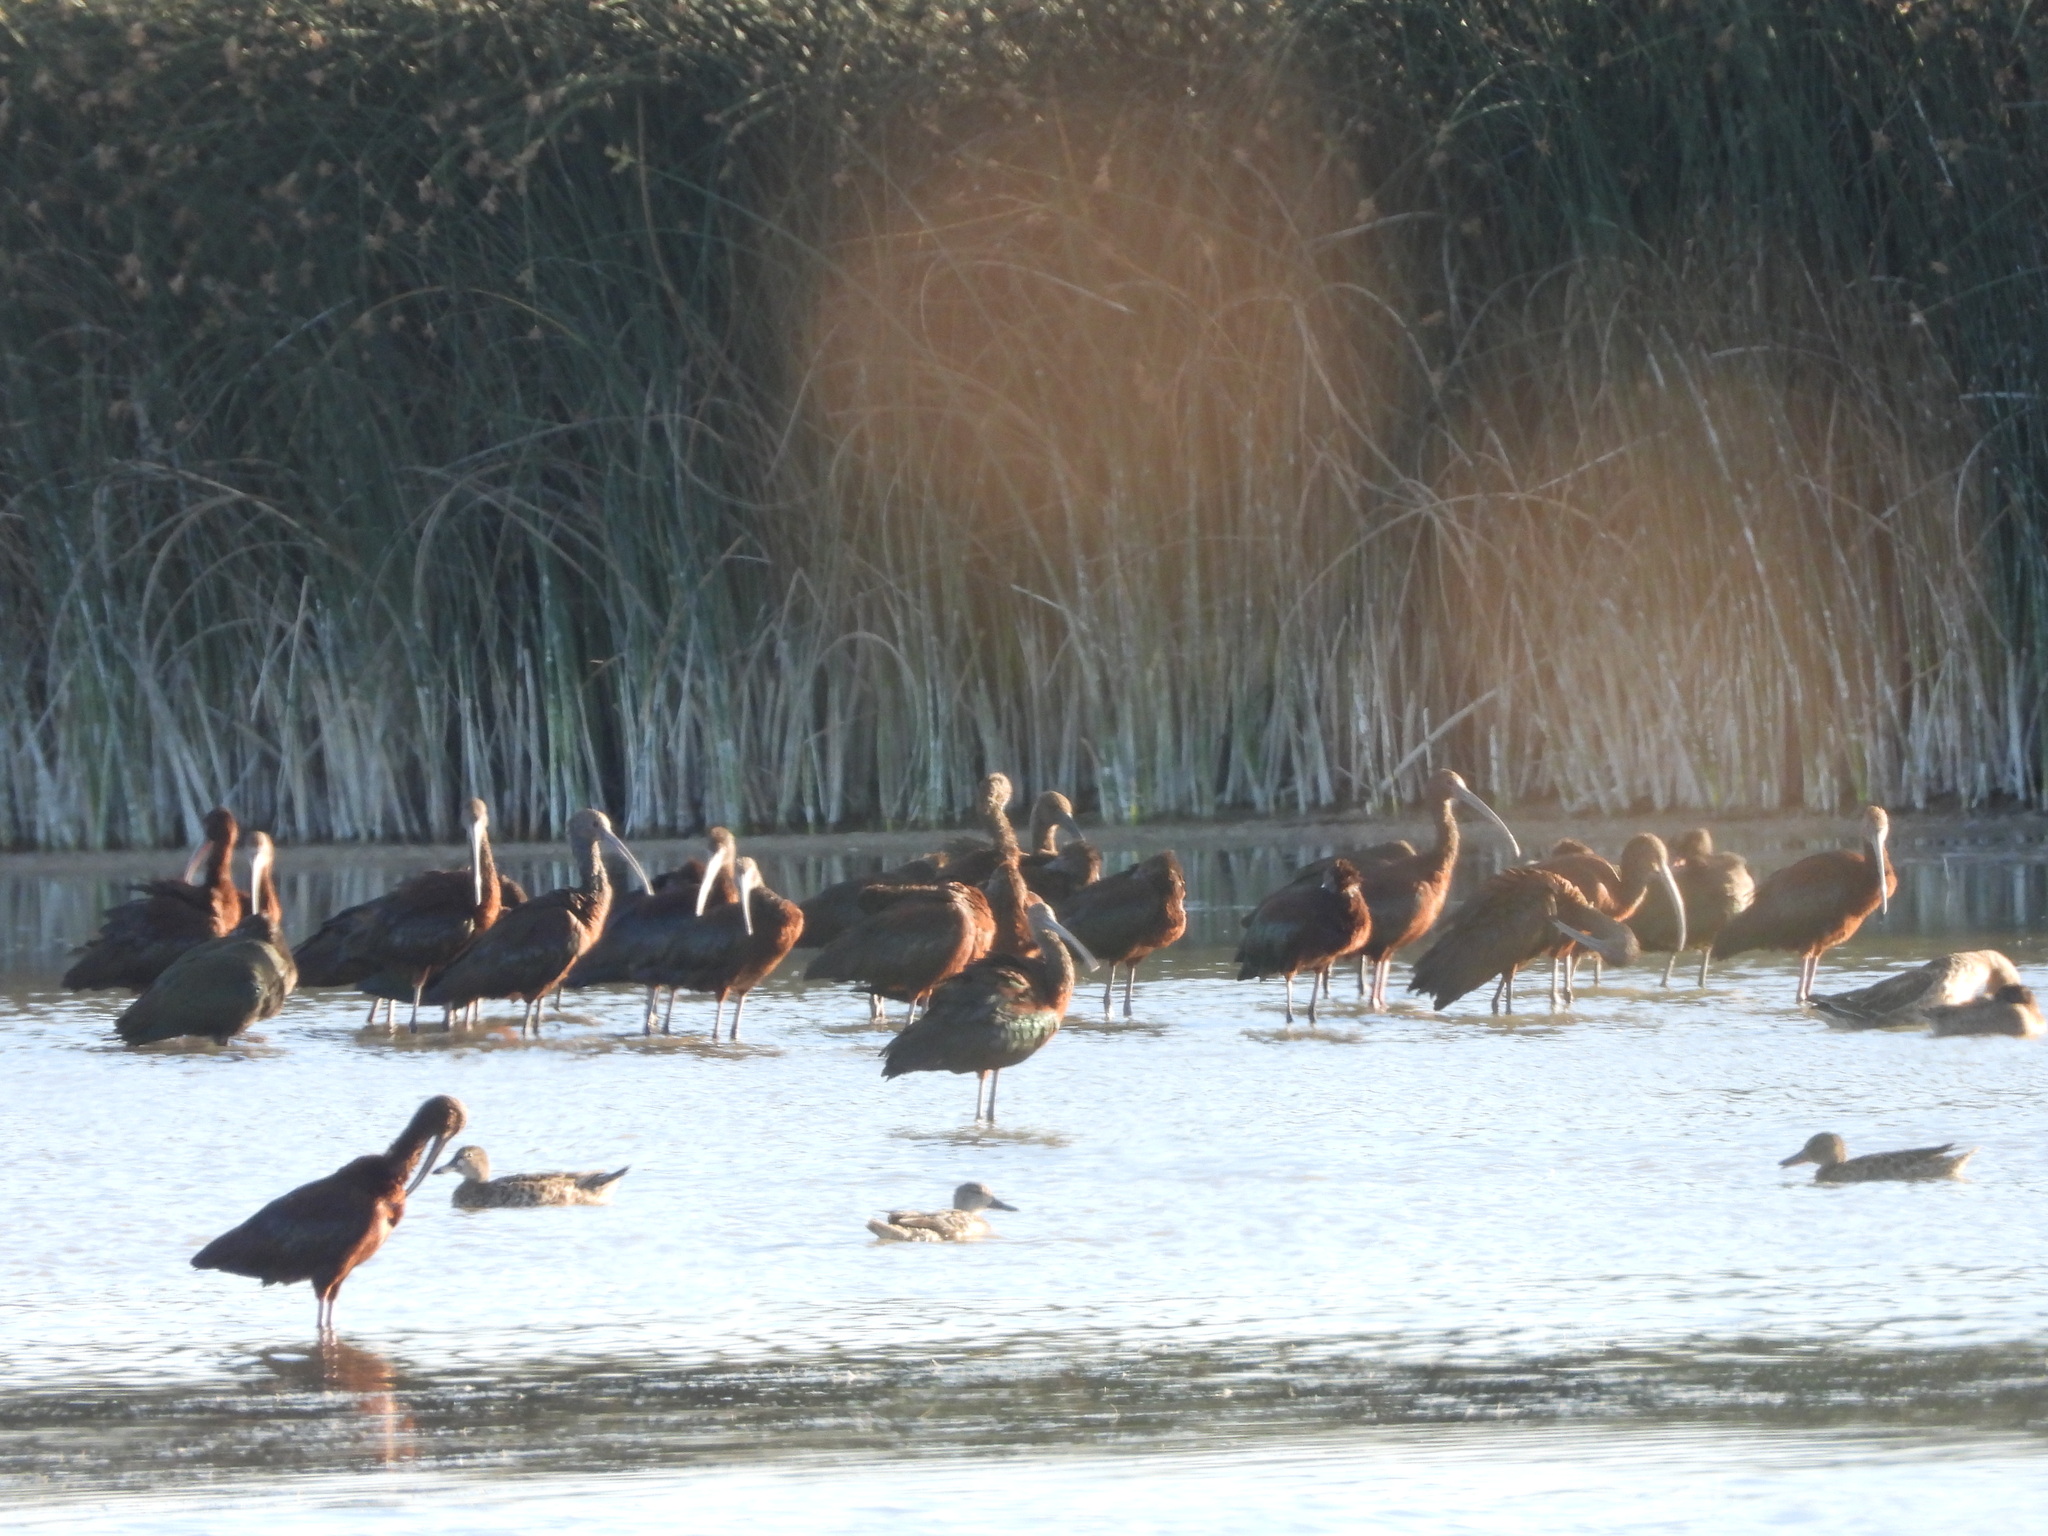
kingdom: Animalia
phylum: Chordata
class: Aves
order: Pelecaniformes
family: Threskiornithidae
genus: Plegadis
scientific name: Plegadis chihi
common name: White-faced ibis
